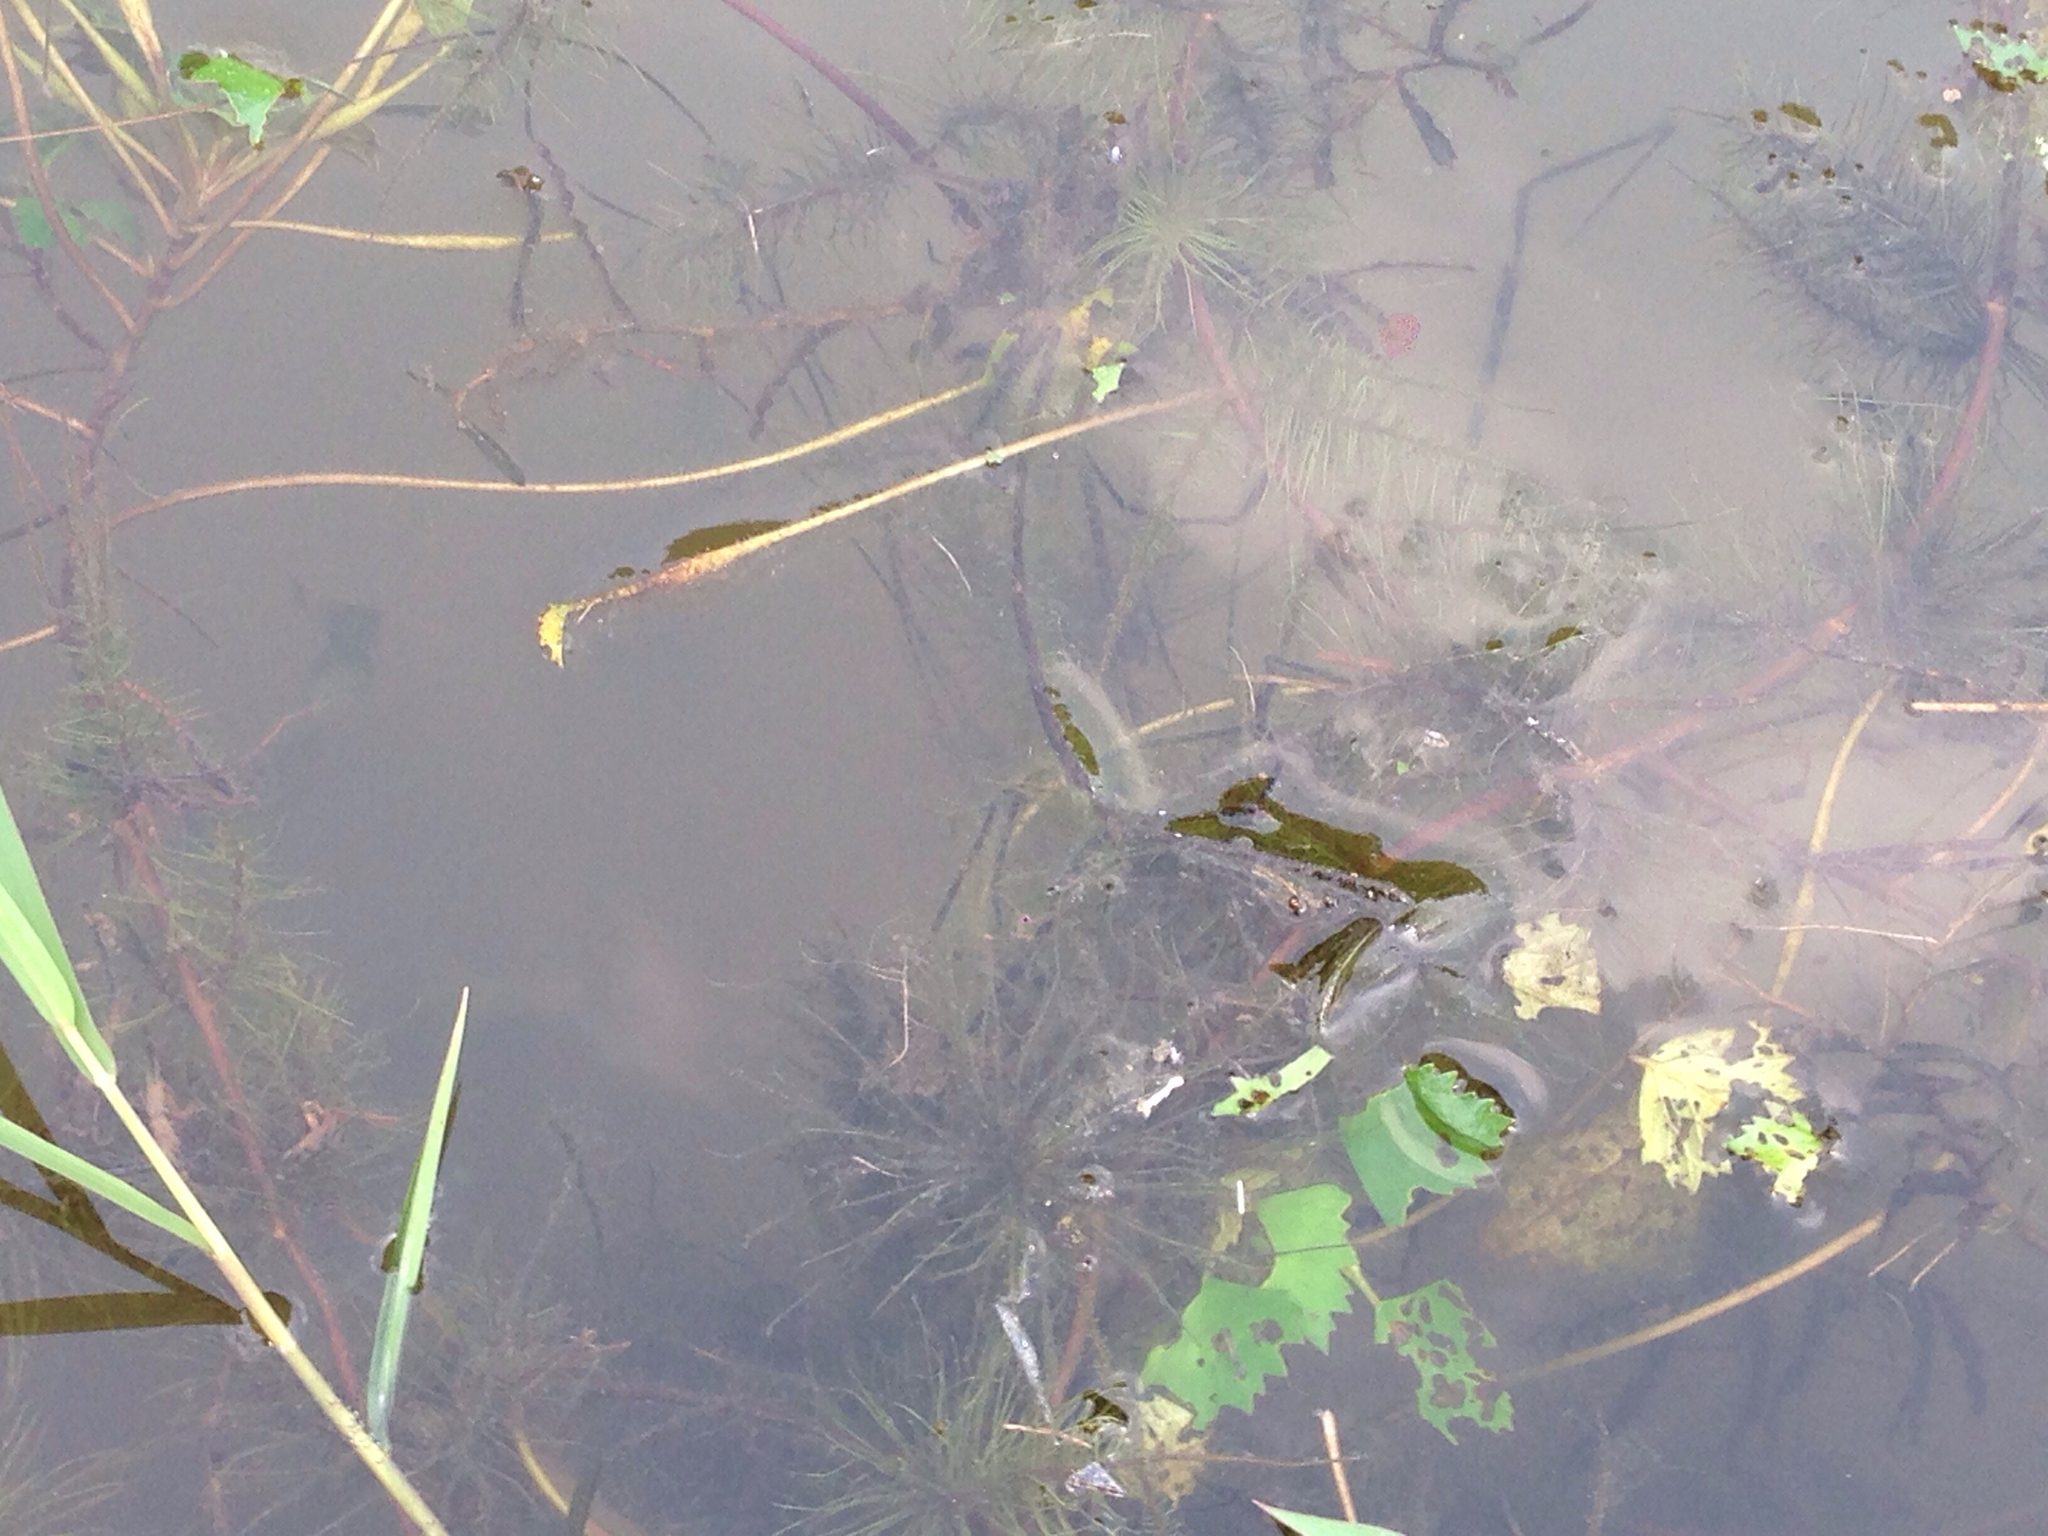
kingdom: Plantae
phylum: Tracheophyta
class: Liliopsida
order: Alismatales
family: Hydrocharitaceae
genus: Najas
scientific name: Najas gracillima
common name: Slender water-nymph
